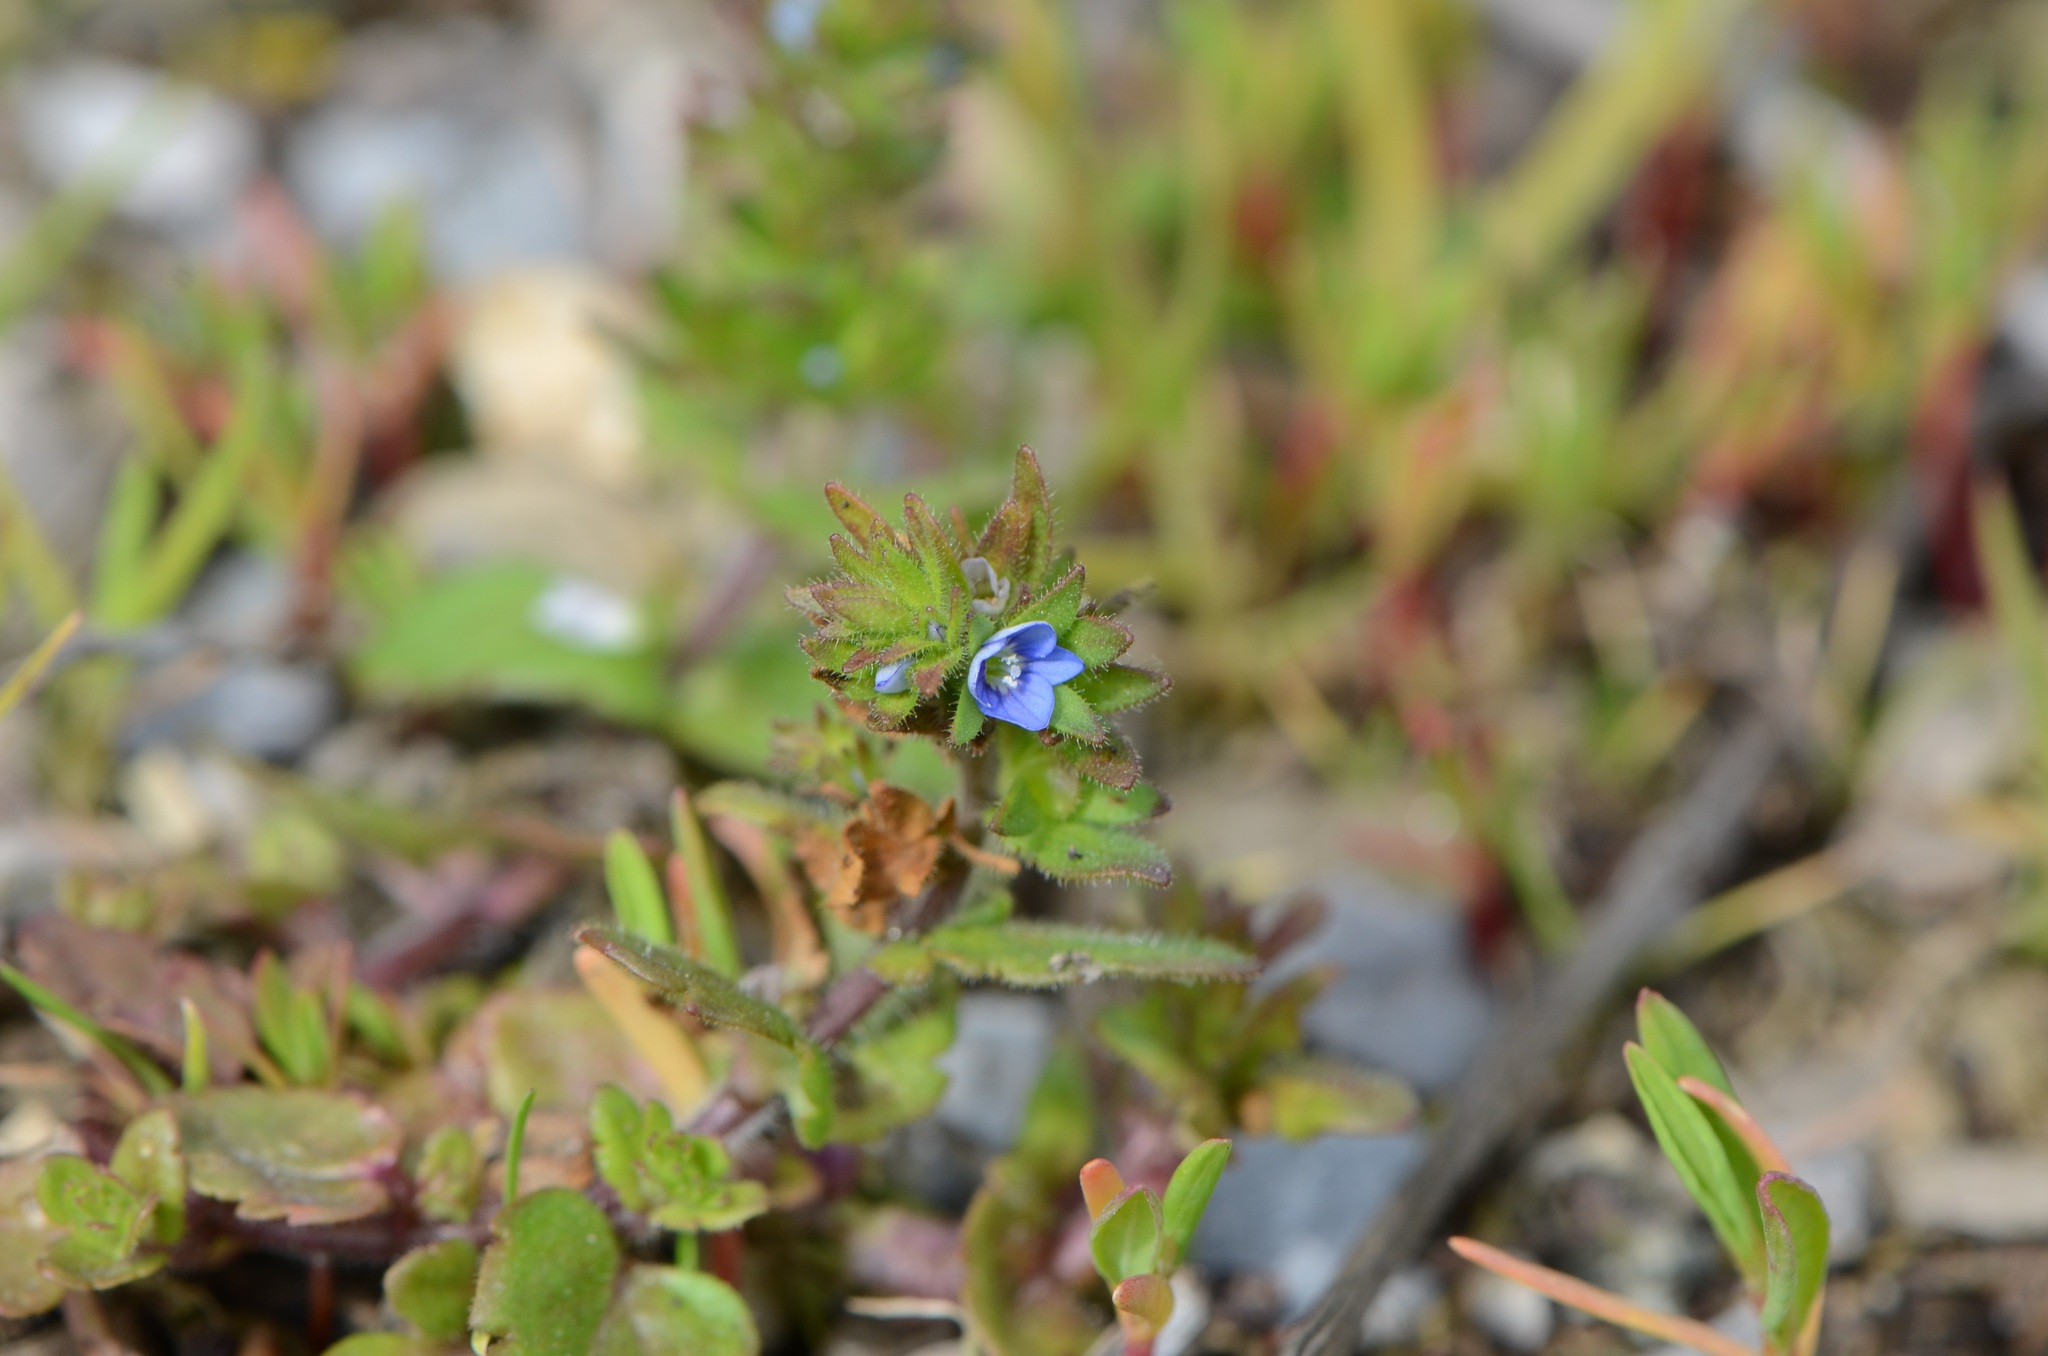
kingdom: Plantae
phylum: Tracheophyta
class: Magnoliopsida
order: Lamiales
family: Plantaginaceae
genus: Veronica
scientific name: Veronica arvensis
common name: Corn speedwell
